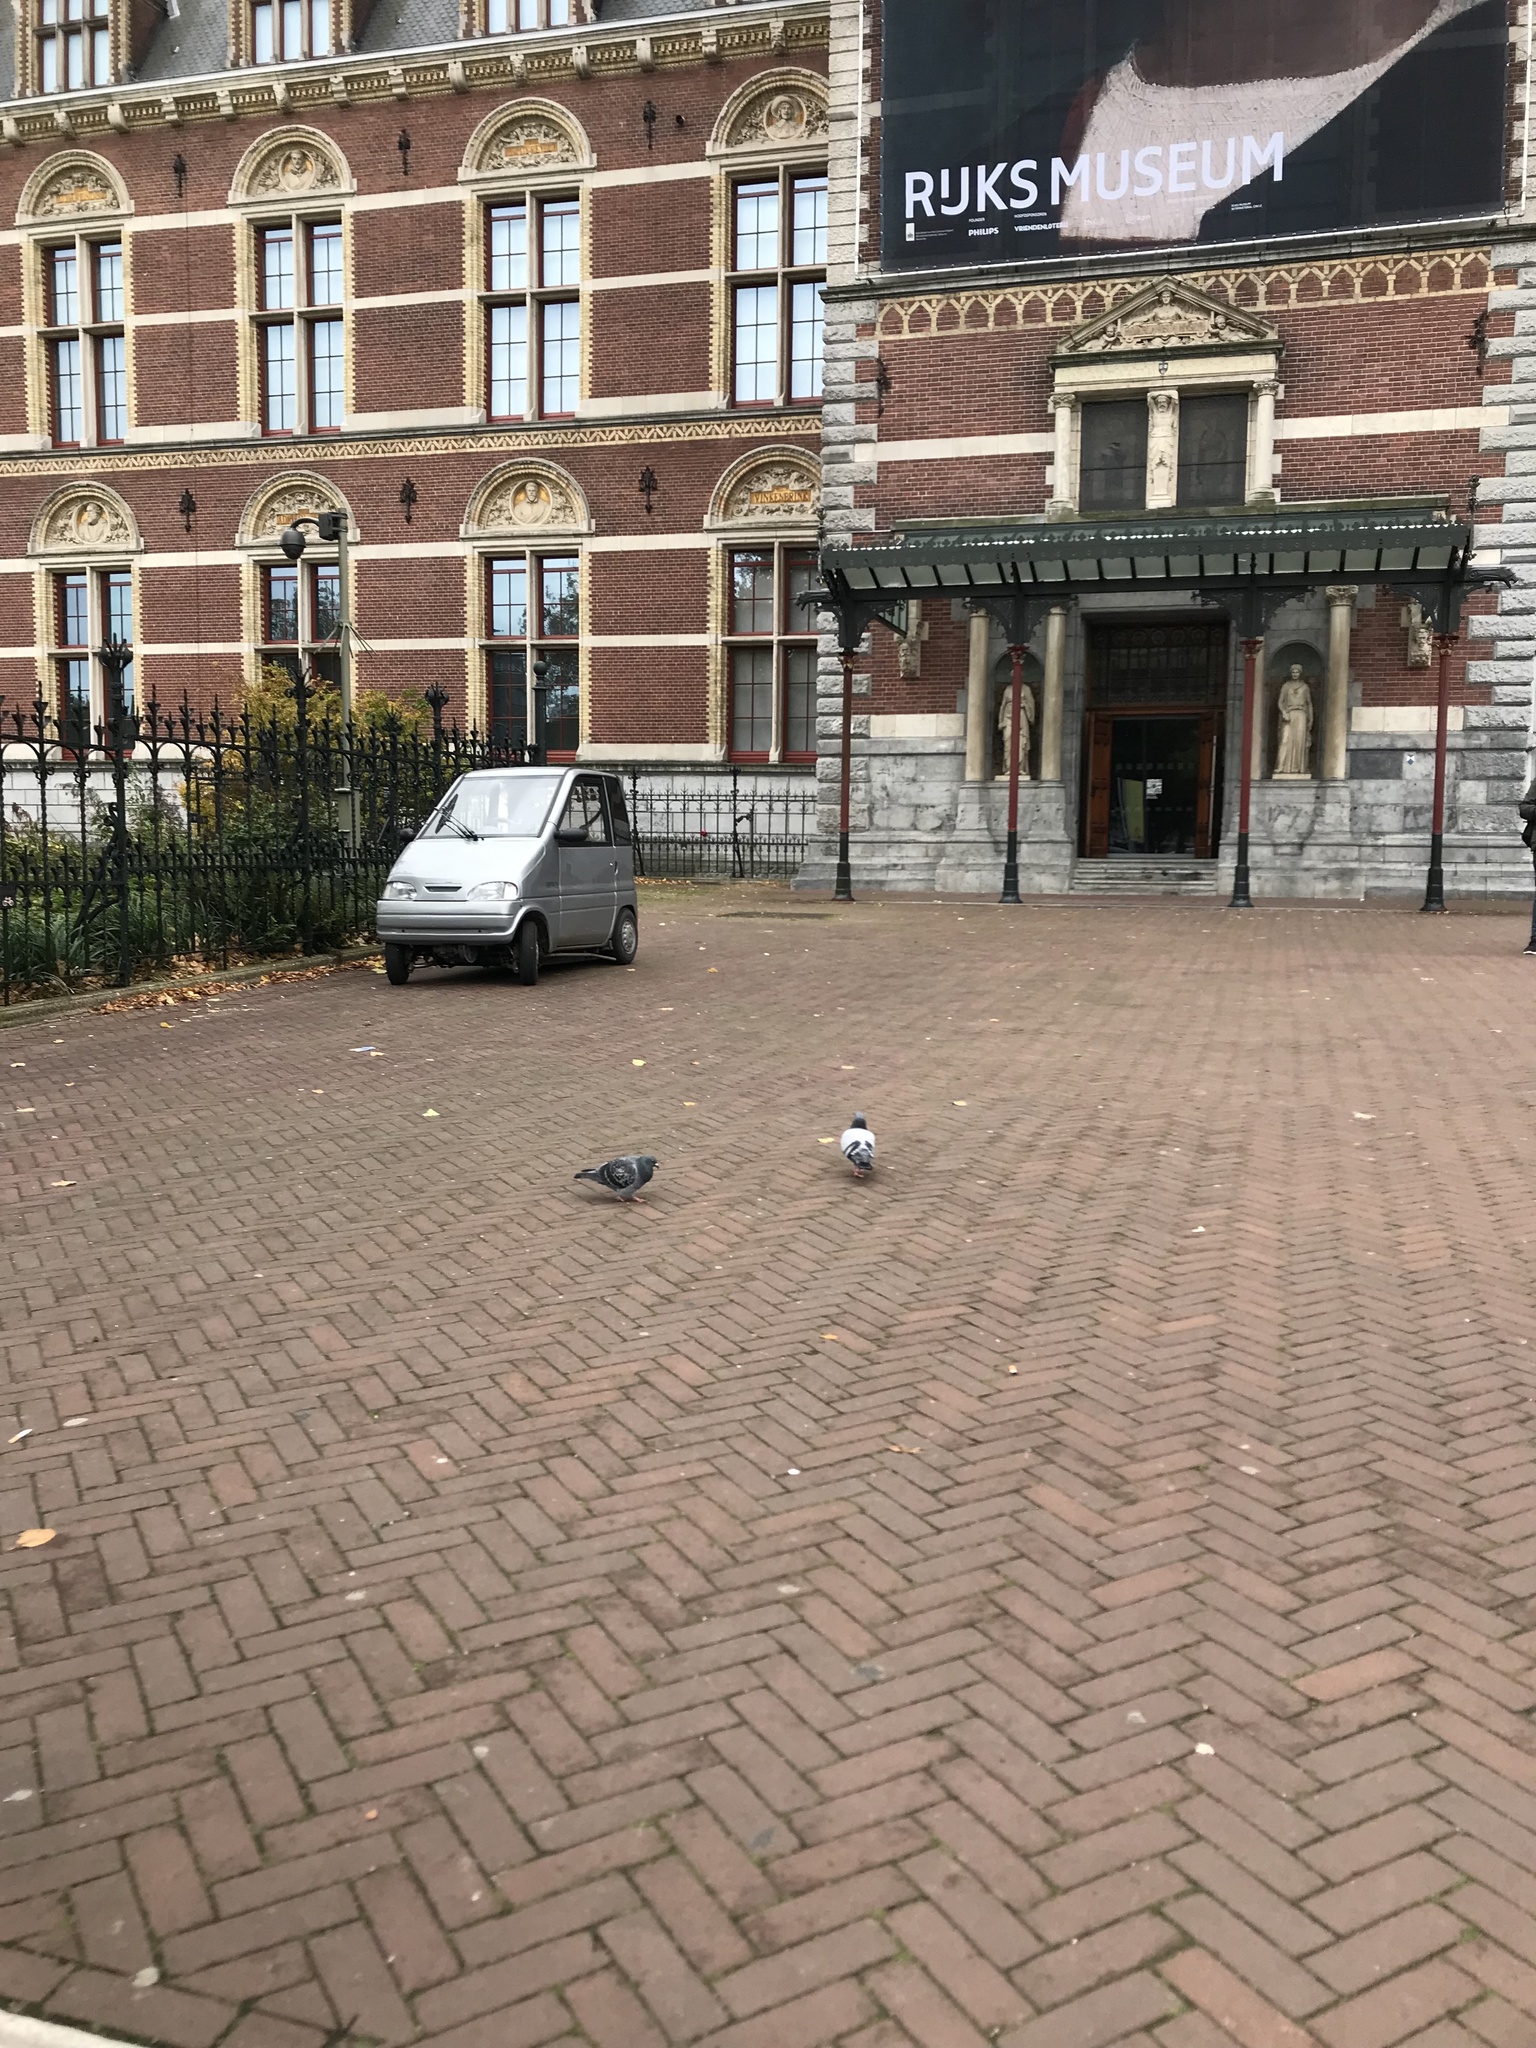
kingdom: Animalia
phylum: Chordata
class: Aves
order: Columbiformes
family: Columbidae
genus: Columba
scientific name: Columba livia
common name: Rock pigeon
